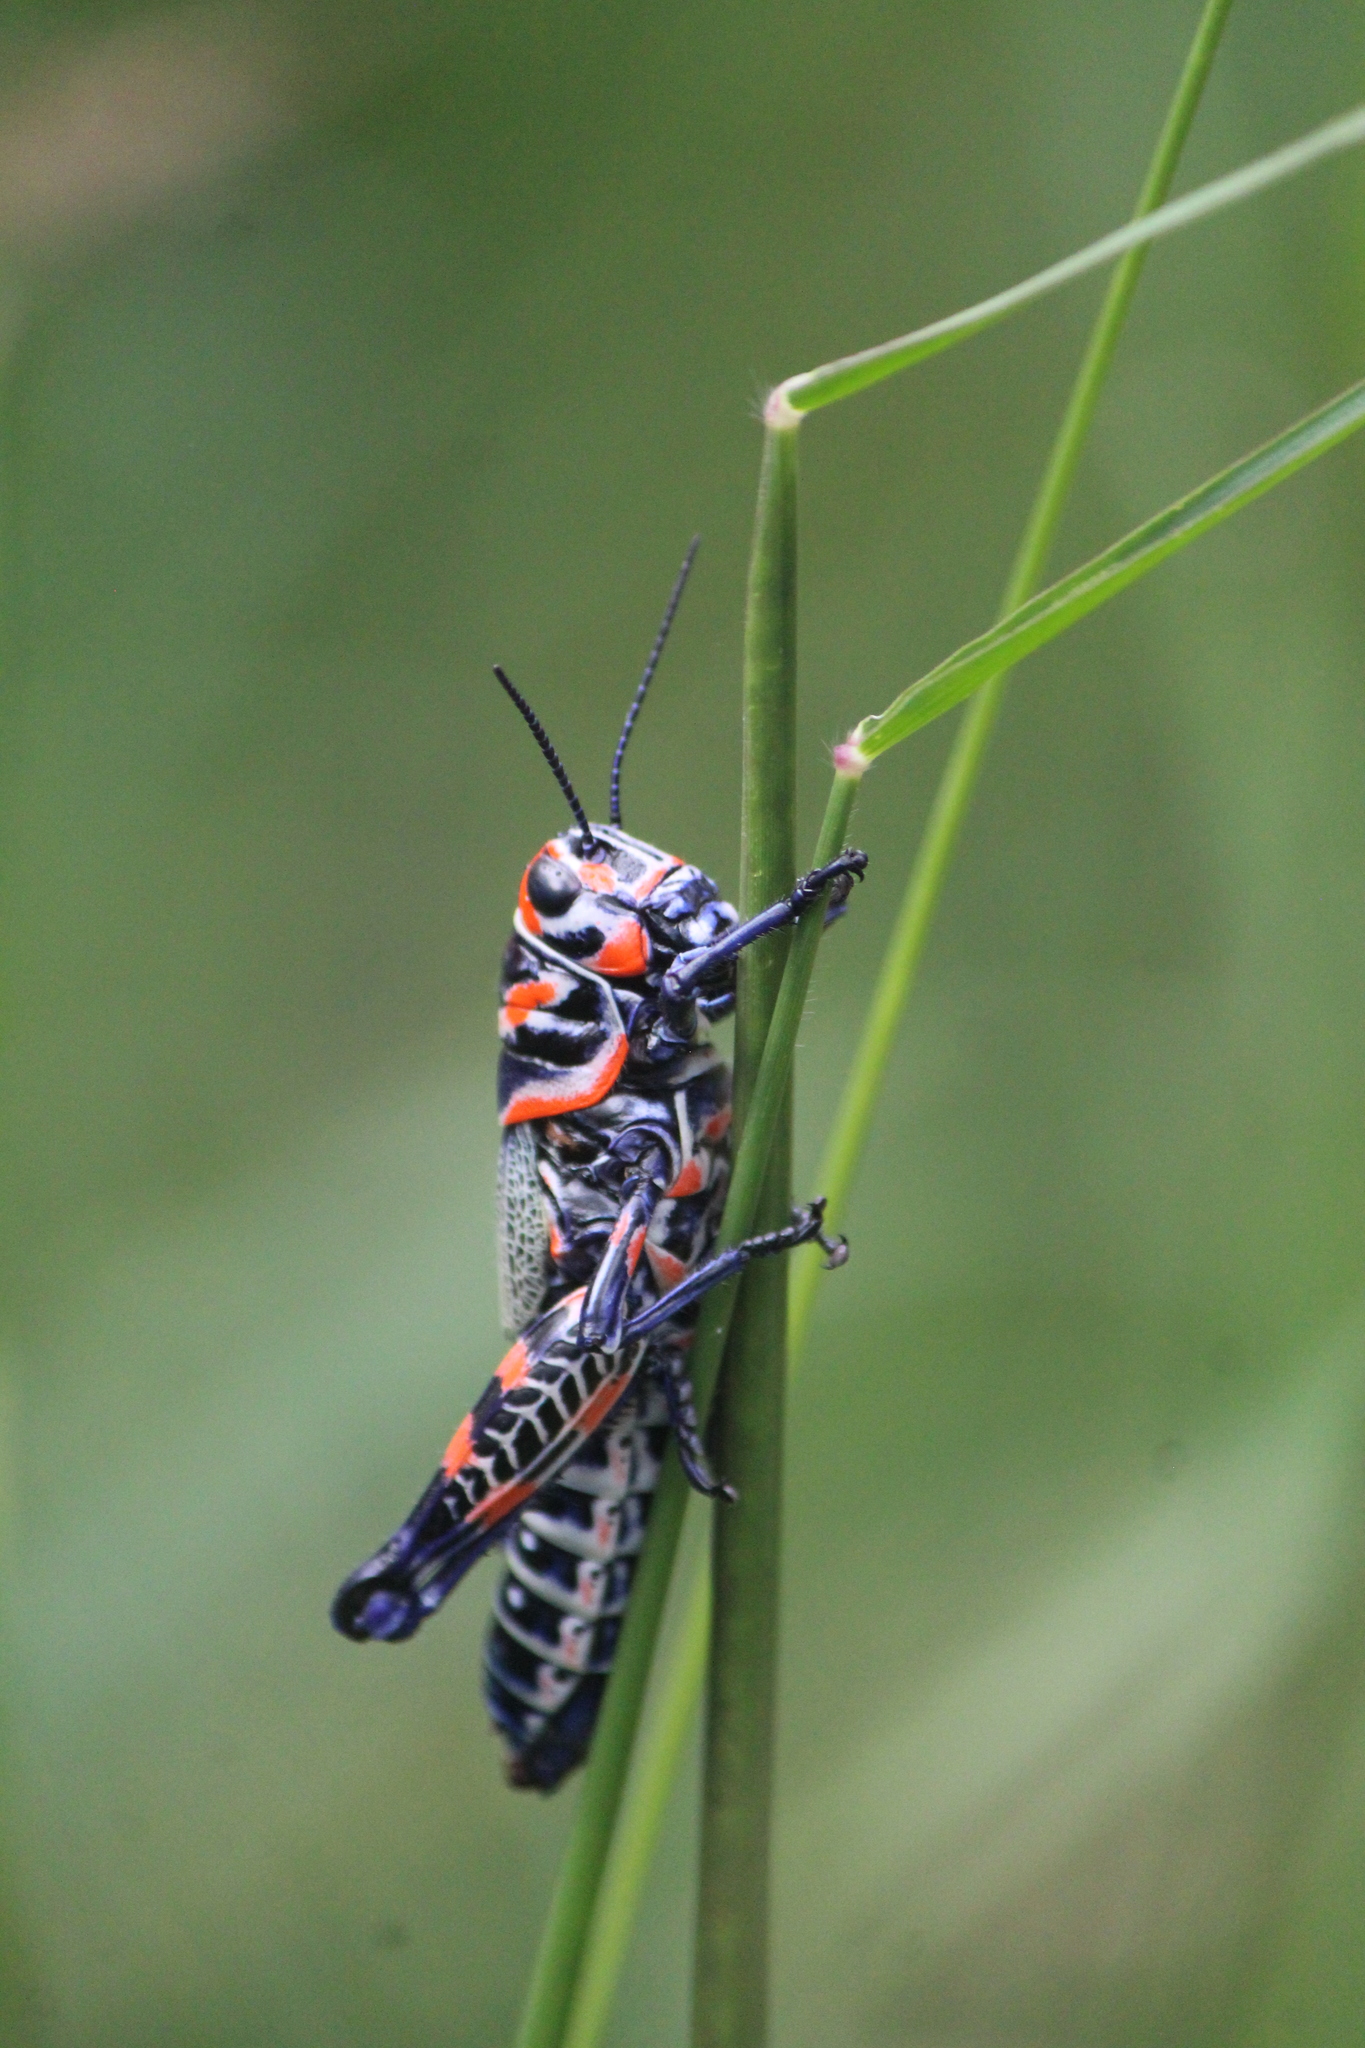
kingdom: Animalia
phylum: Arthropoda
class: Insecta
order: Orthoptera
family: Acrididae
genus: Dactylotum
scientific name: Dactylotum bicolor
